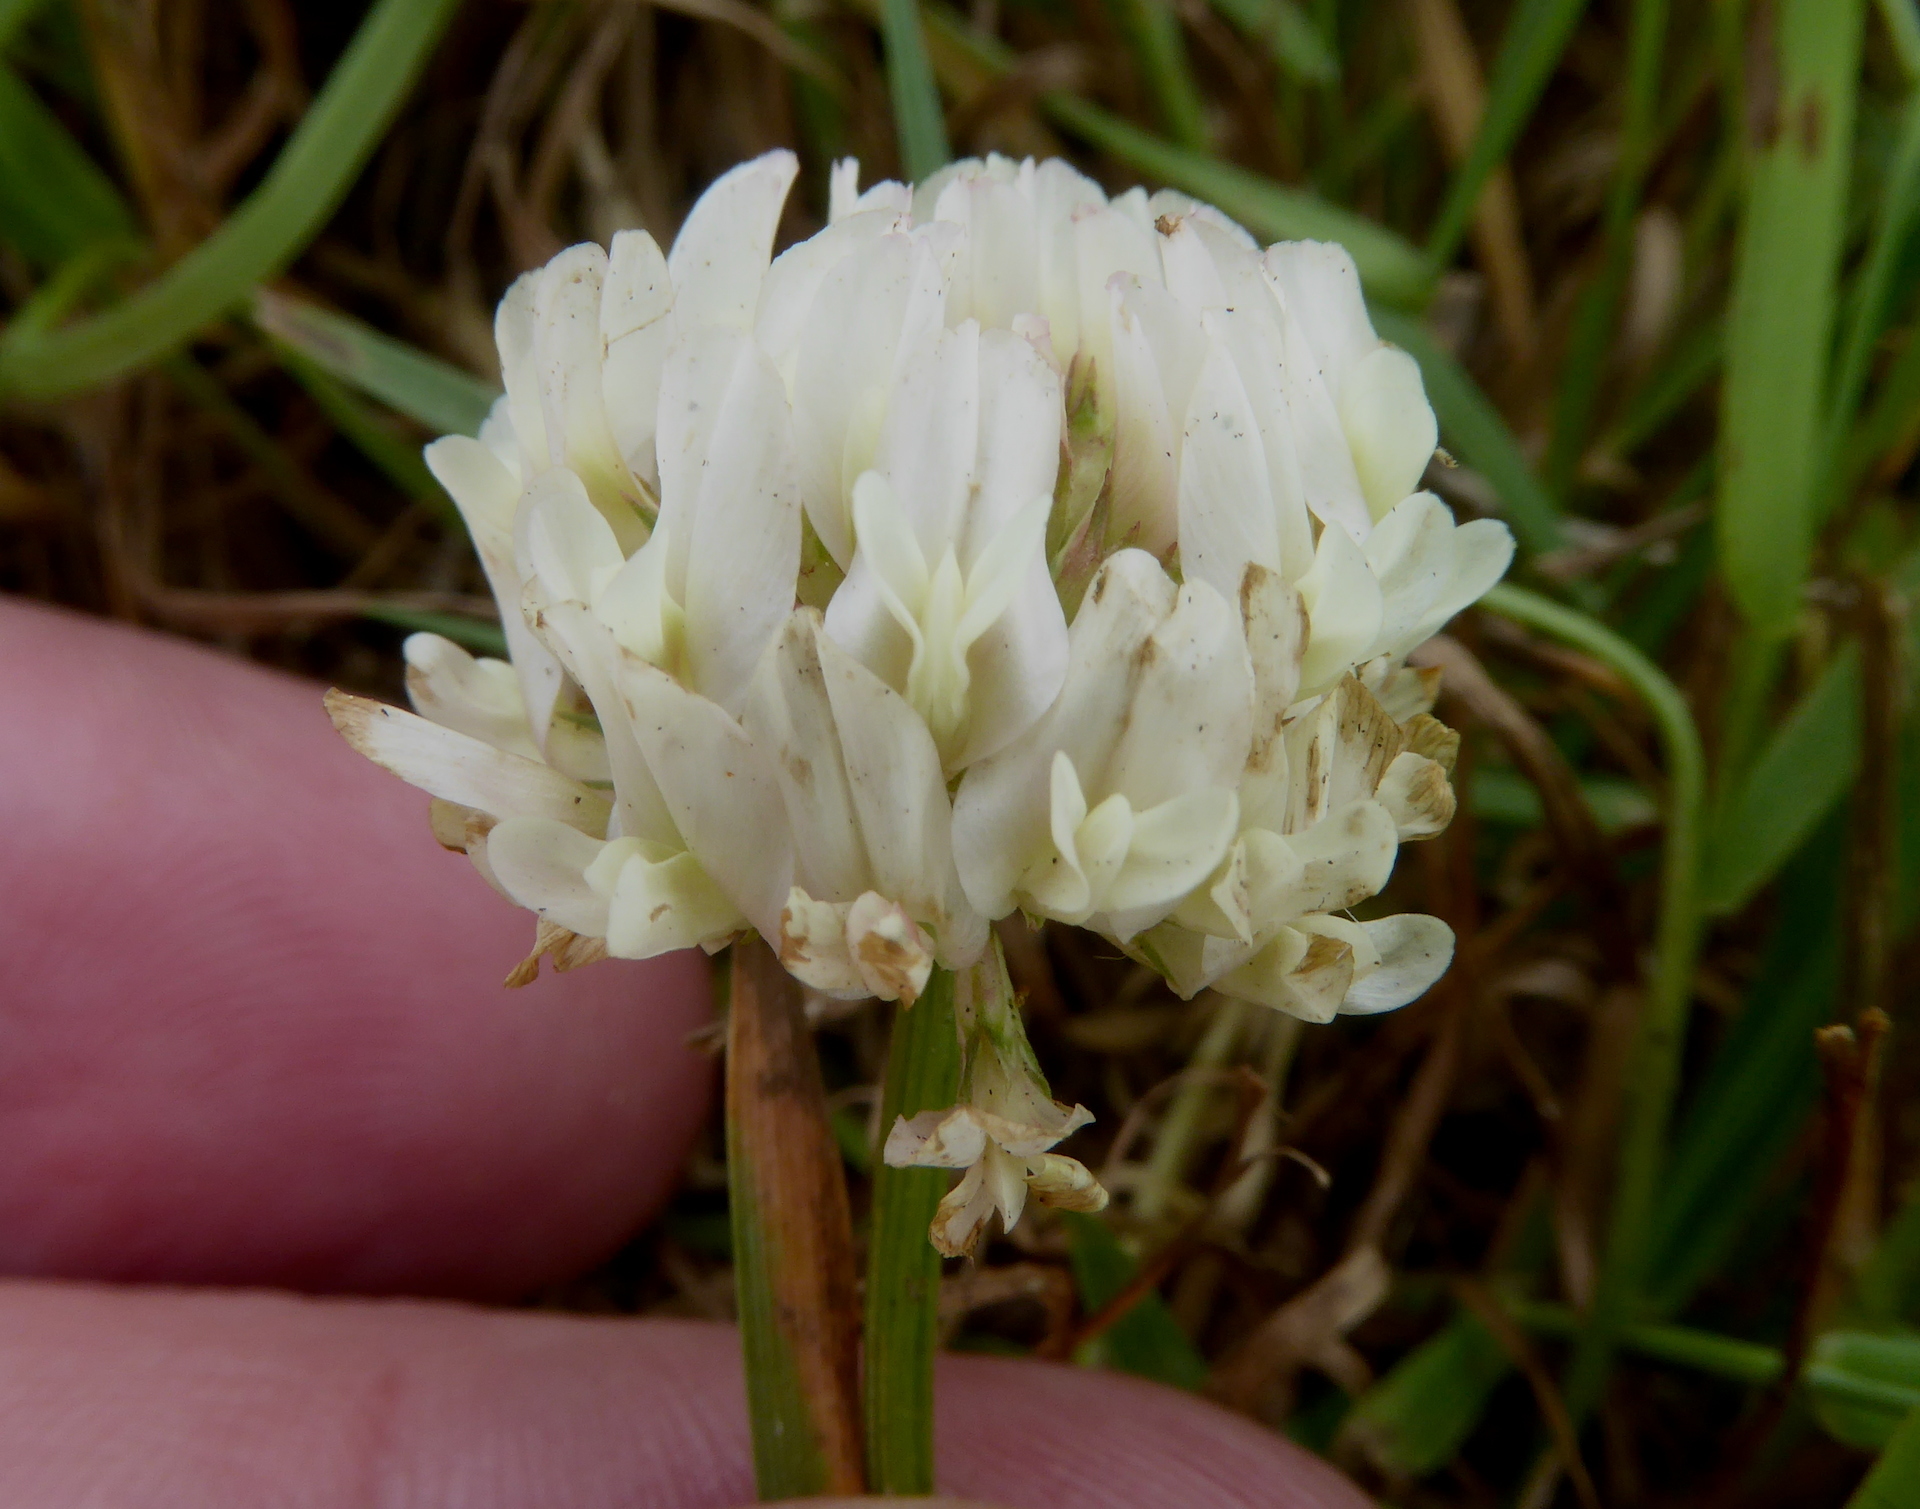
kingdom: Plantae
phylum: Tracheophyta
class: Magnoliopsida
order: Fabales
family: Fabaceae
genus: Trifolium
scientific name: Trifolium repens
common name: White clover
